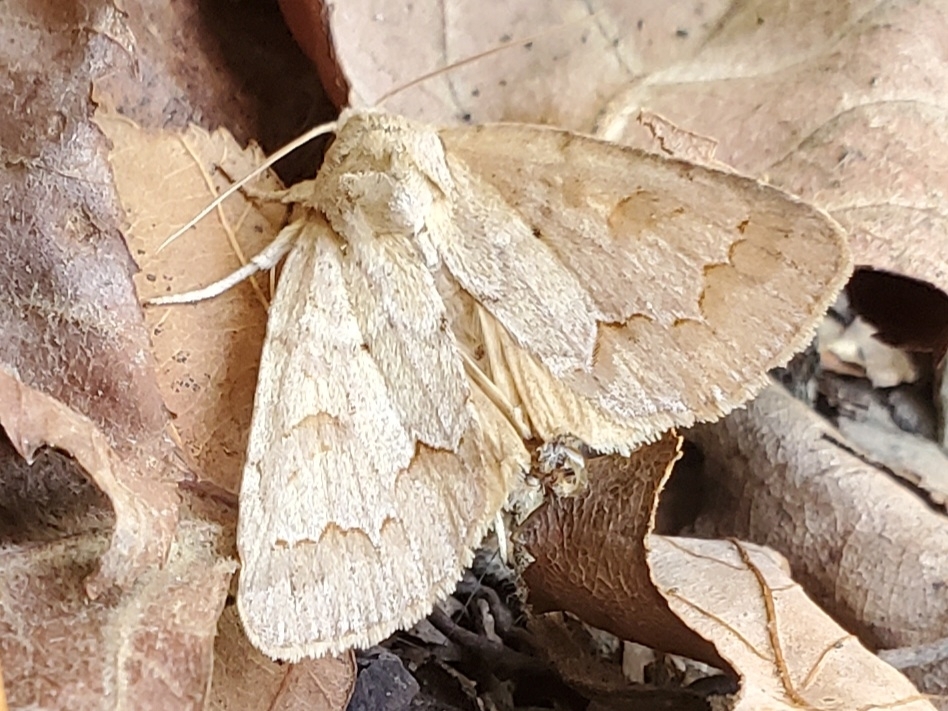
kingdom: Animalia
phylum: Arthropoda
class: Insecta
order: Lepidoptera
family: Noctuidae
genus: Acronicta
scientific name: Acronicta betulae
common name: Birch dagger moth
